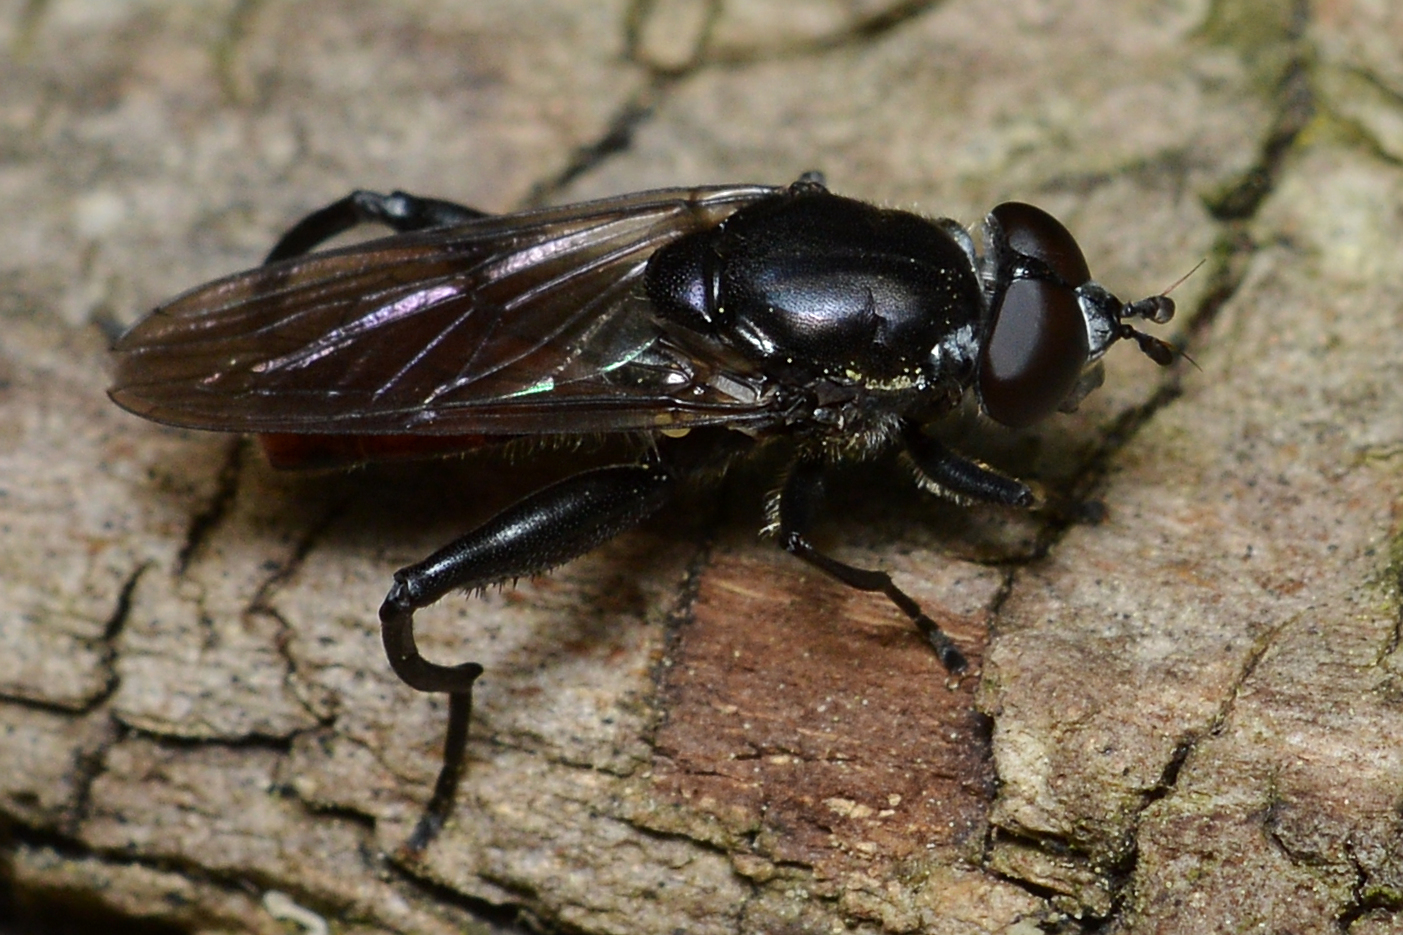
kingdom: Animalia
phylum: Arthropoda
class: Insecta
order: Diptera
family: Syrphidae
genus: Chalcosyrphus
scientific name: Chalcosyrphus piger
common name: Short-haired leafwalker
